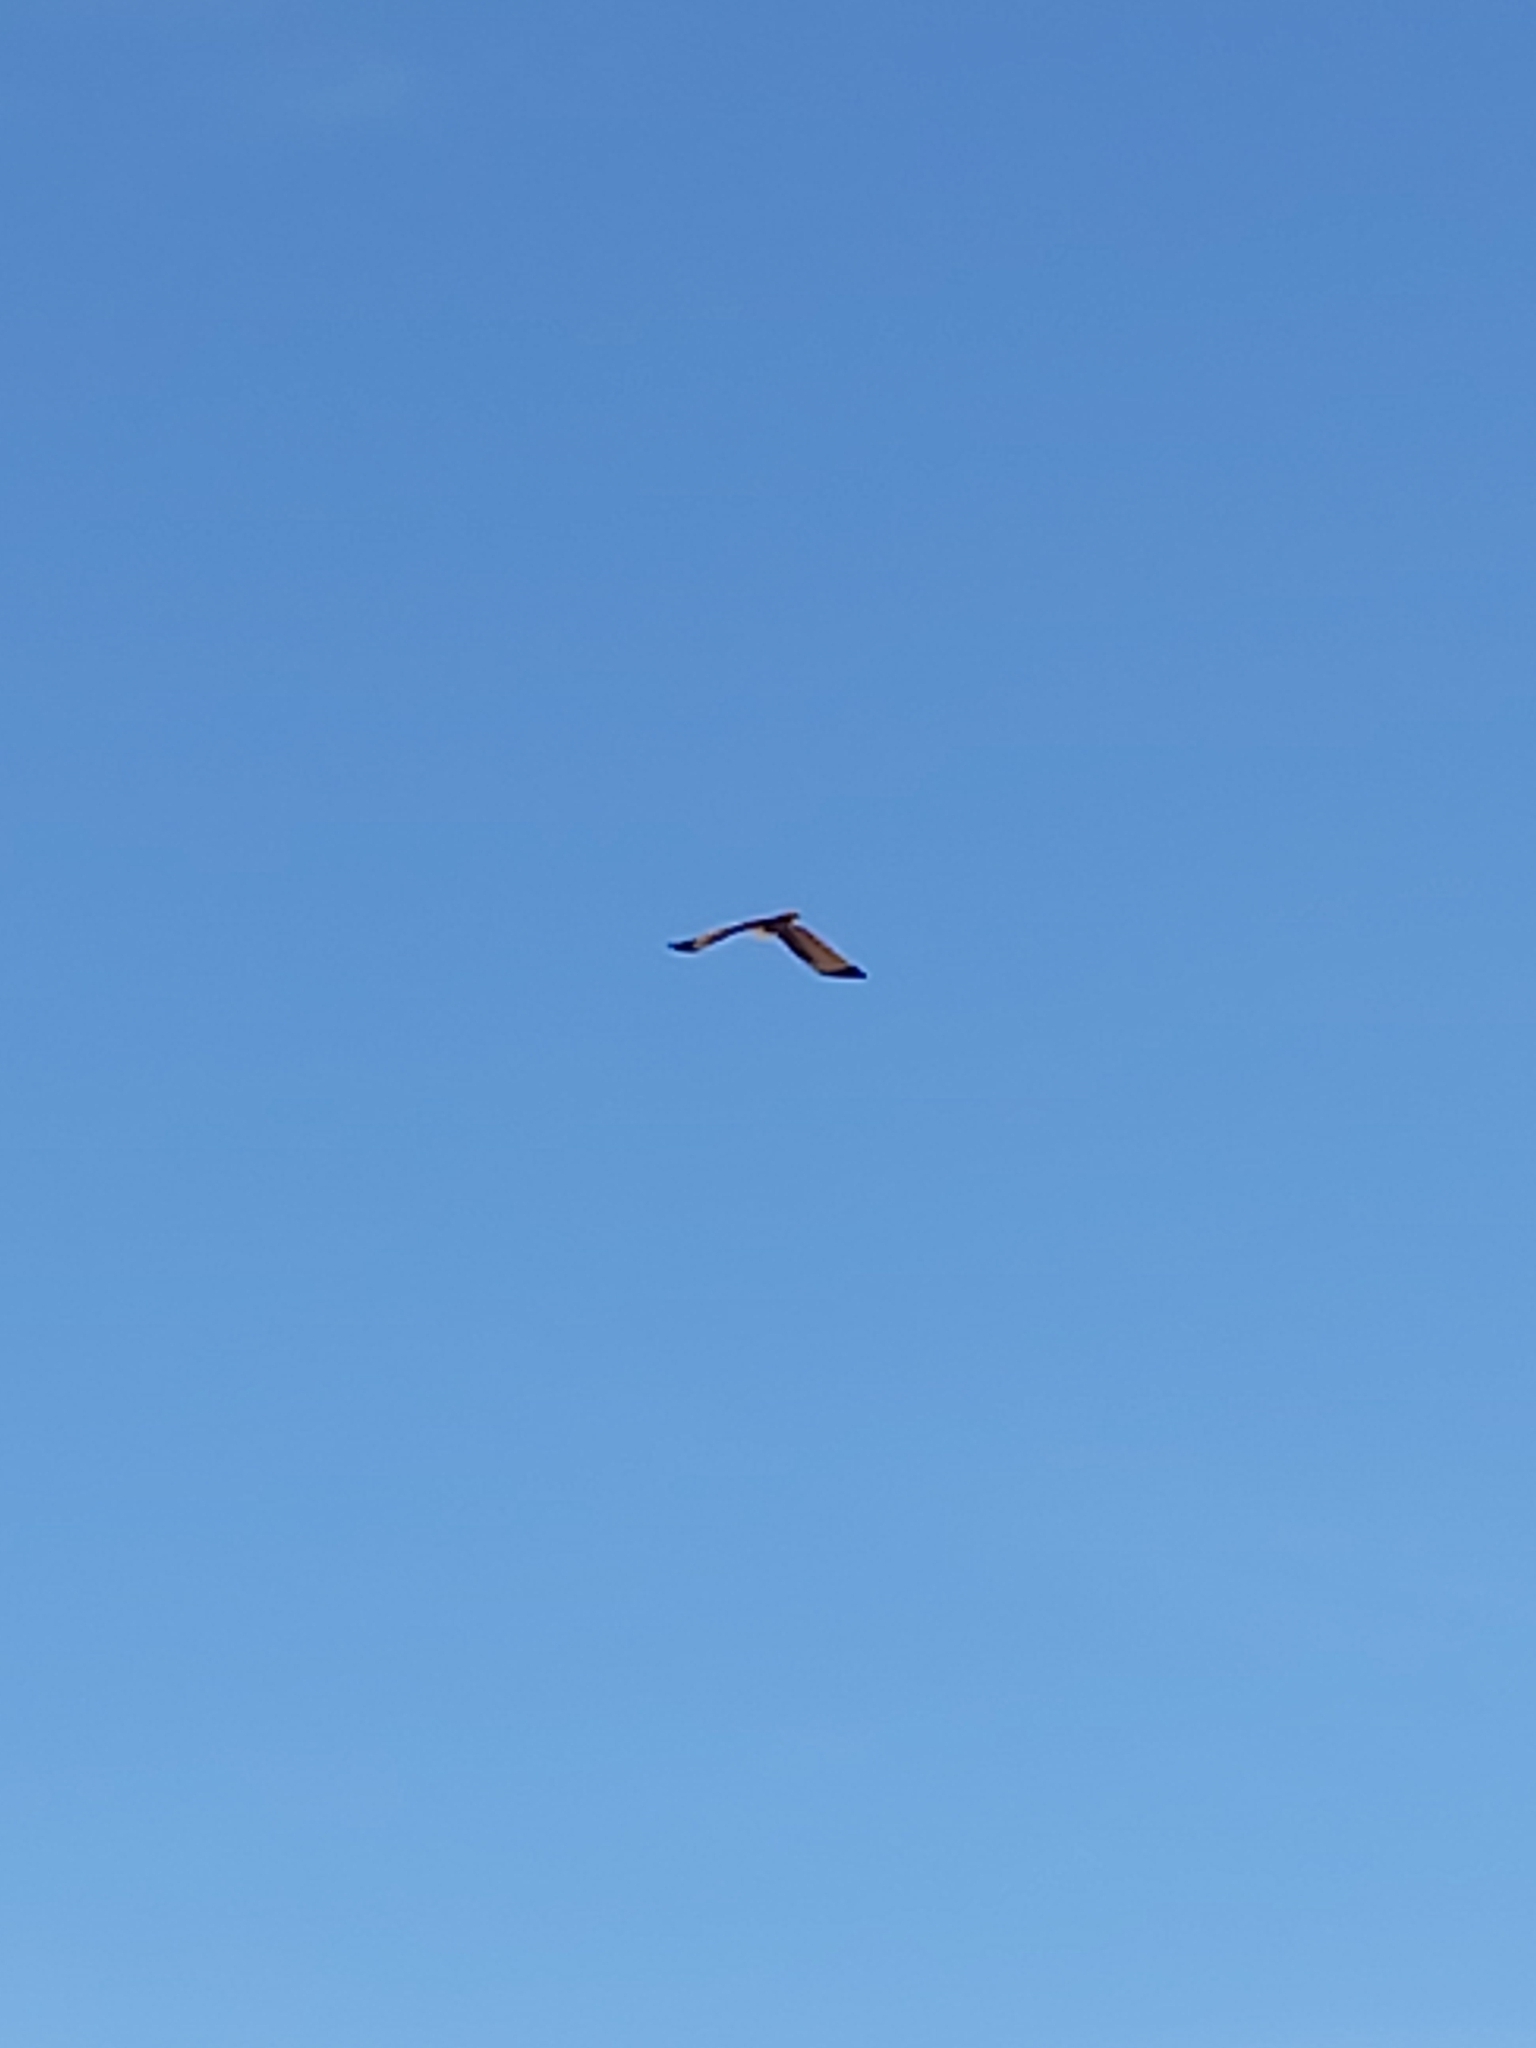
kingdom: Animalia
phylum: Chordata
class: Aves
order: Accipitriformes
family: Accipitridae
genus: Haliastur
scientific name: Haliastur indus
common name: Brahminy kite
